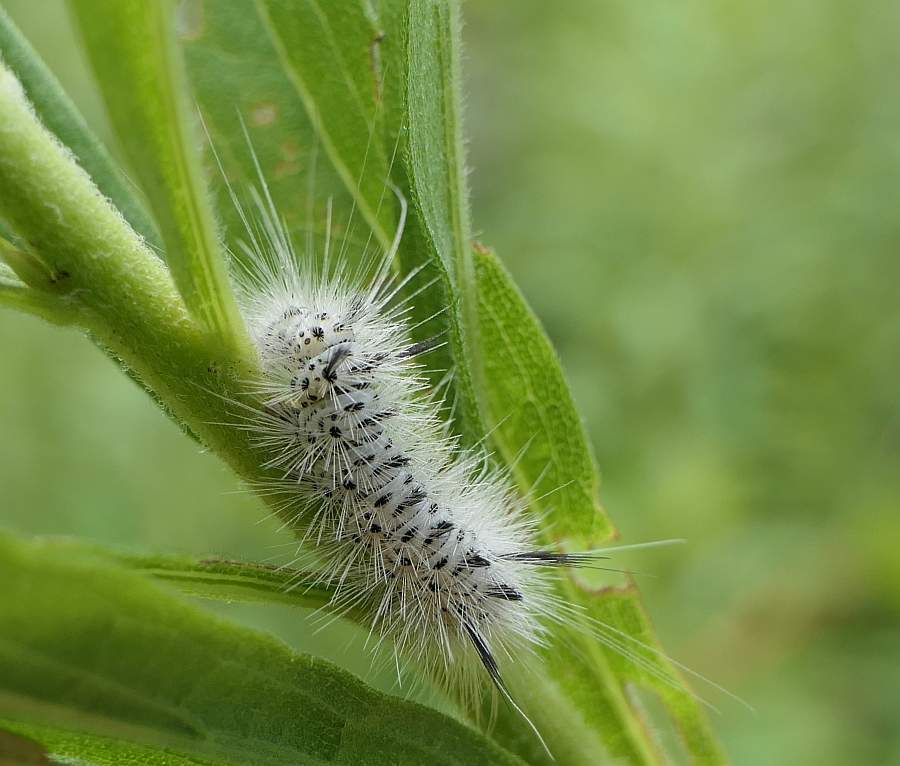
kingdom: Animalia
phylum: Arthropoda
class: Insecta
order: Lepidoptera
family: Erebidae
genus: Lophocampa
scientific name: Lophocampa caryae
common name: Hickory tussock moth
